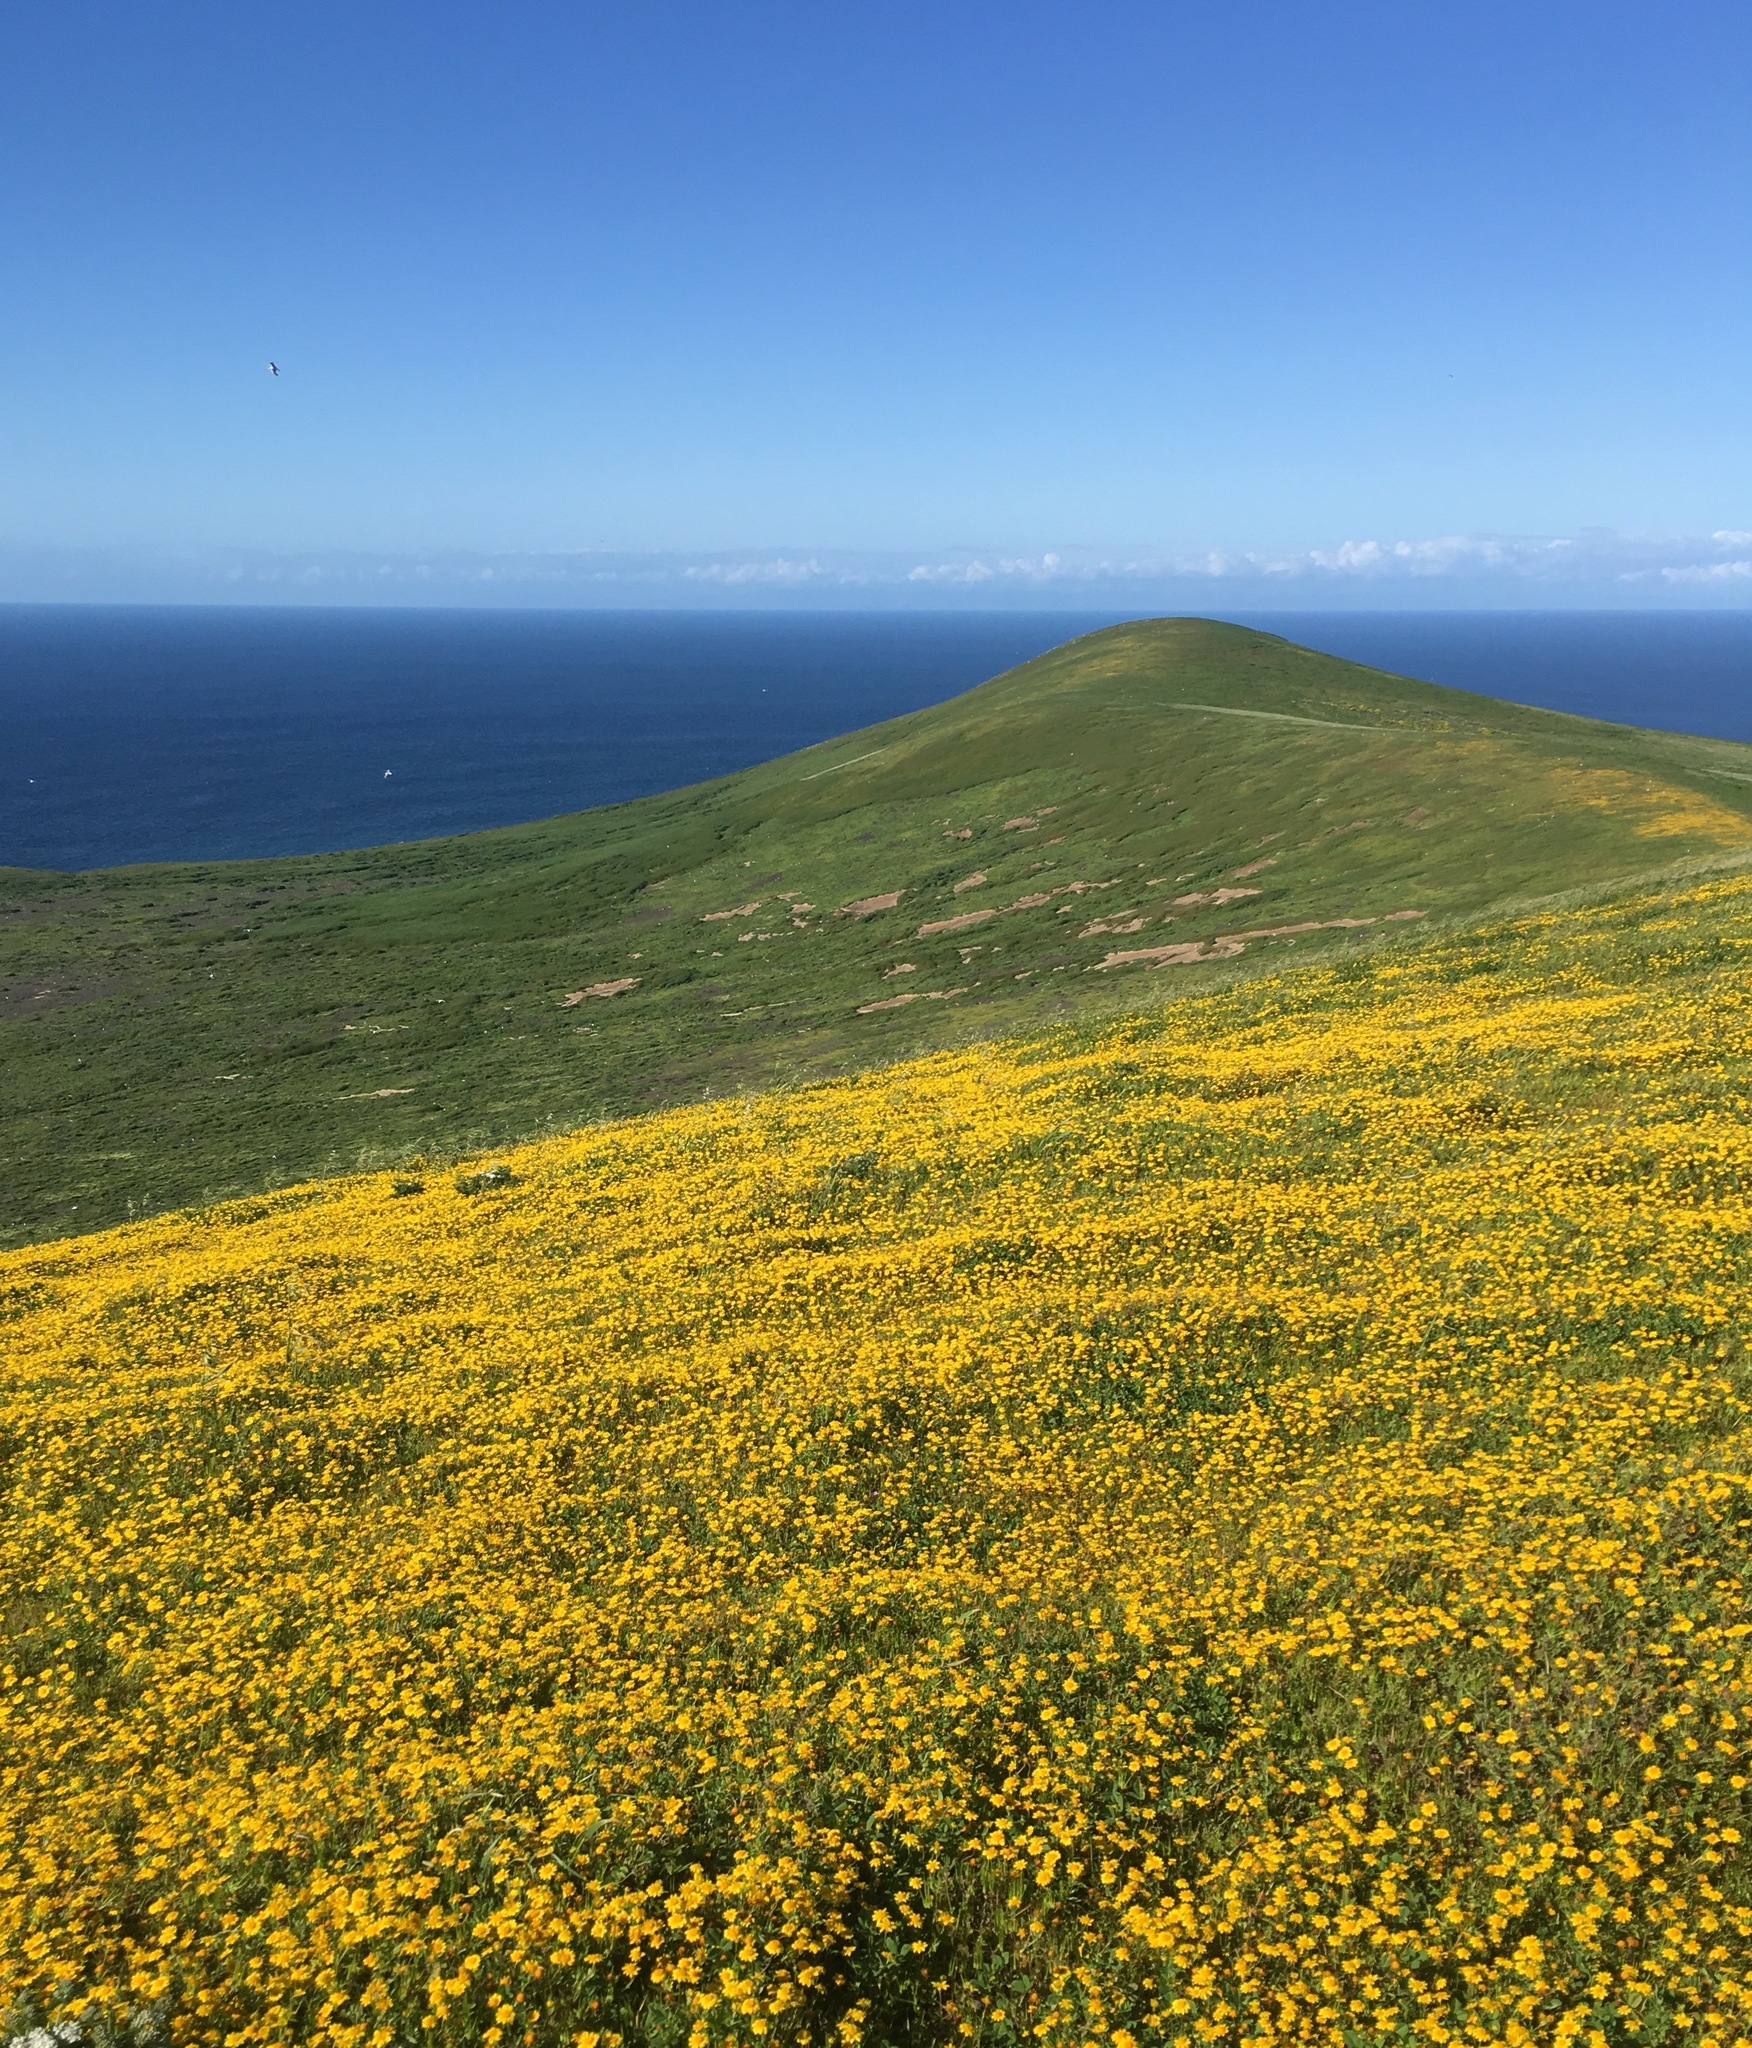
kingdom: Plantae
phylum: Tracheophyta
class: Magnoliopsida
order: Asterales
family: Asteraceae
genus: Lasthenia
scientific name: Lasthenia gracilis
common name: Common goldfields
